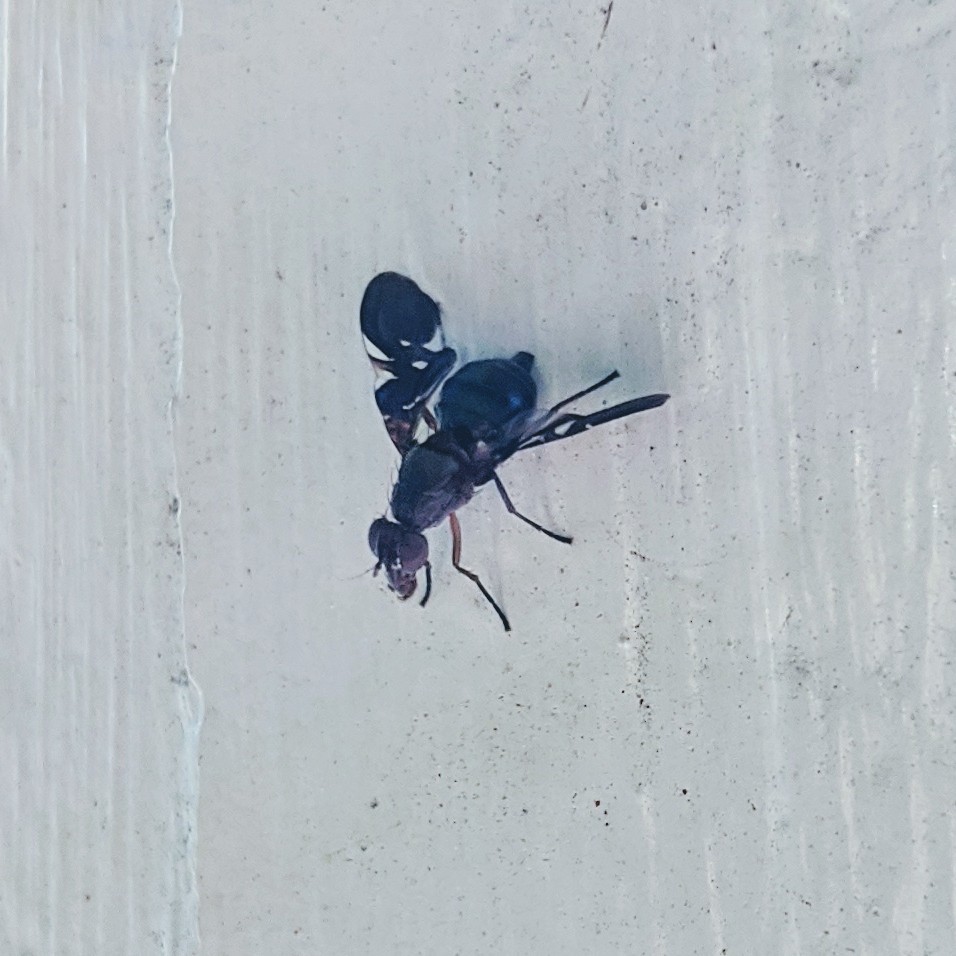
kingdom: Animalia
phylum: Arthropoda
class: Insecta
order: Diptera
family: Ulidiidae
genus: Delphinia
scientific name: Delphinia picta
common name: Common picture-winged fly
